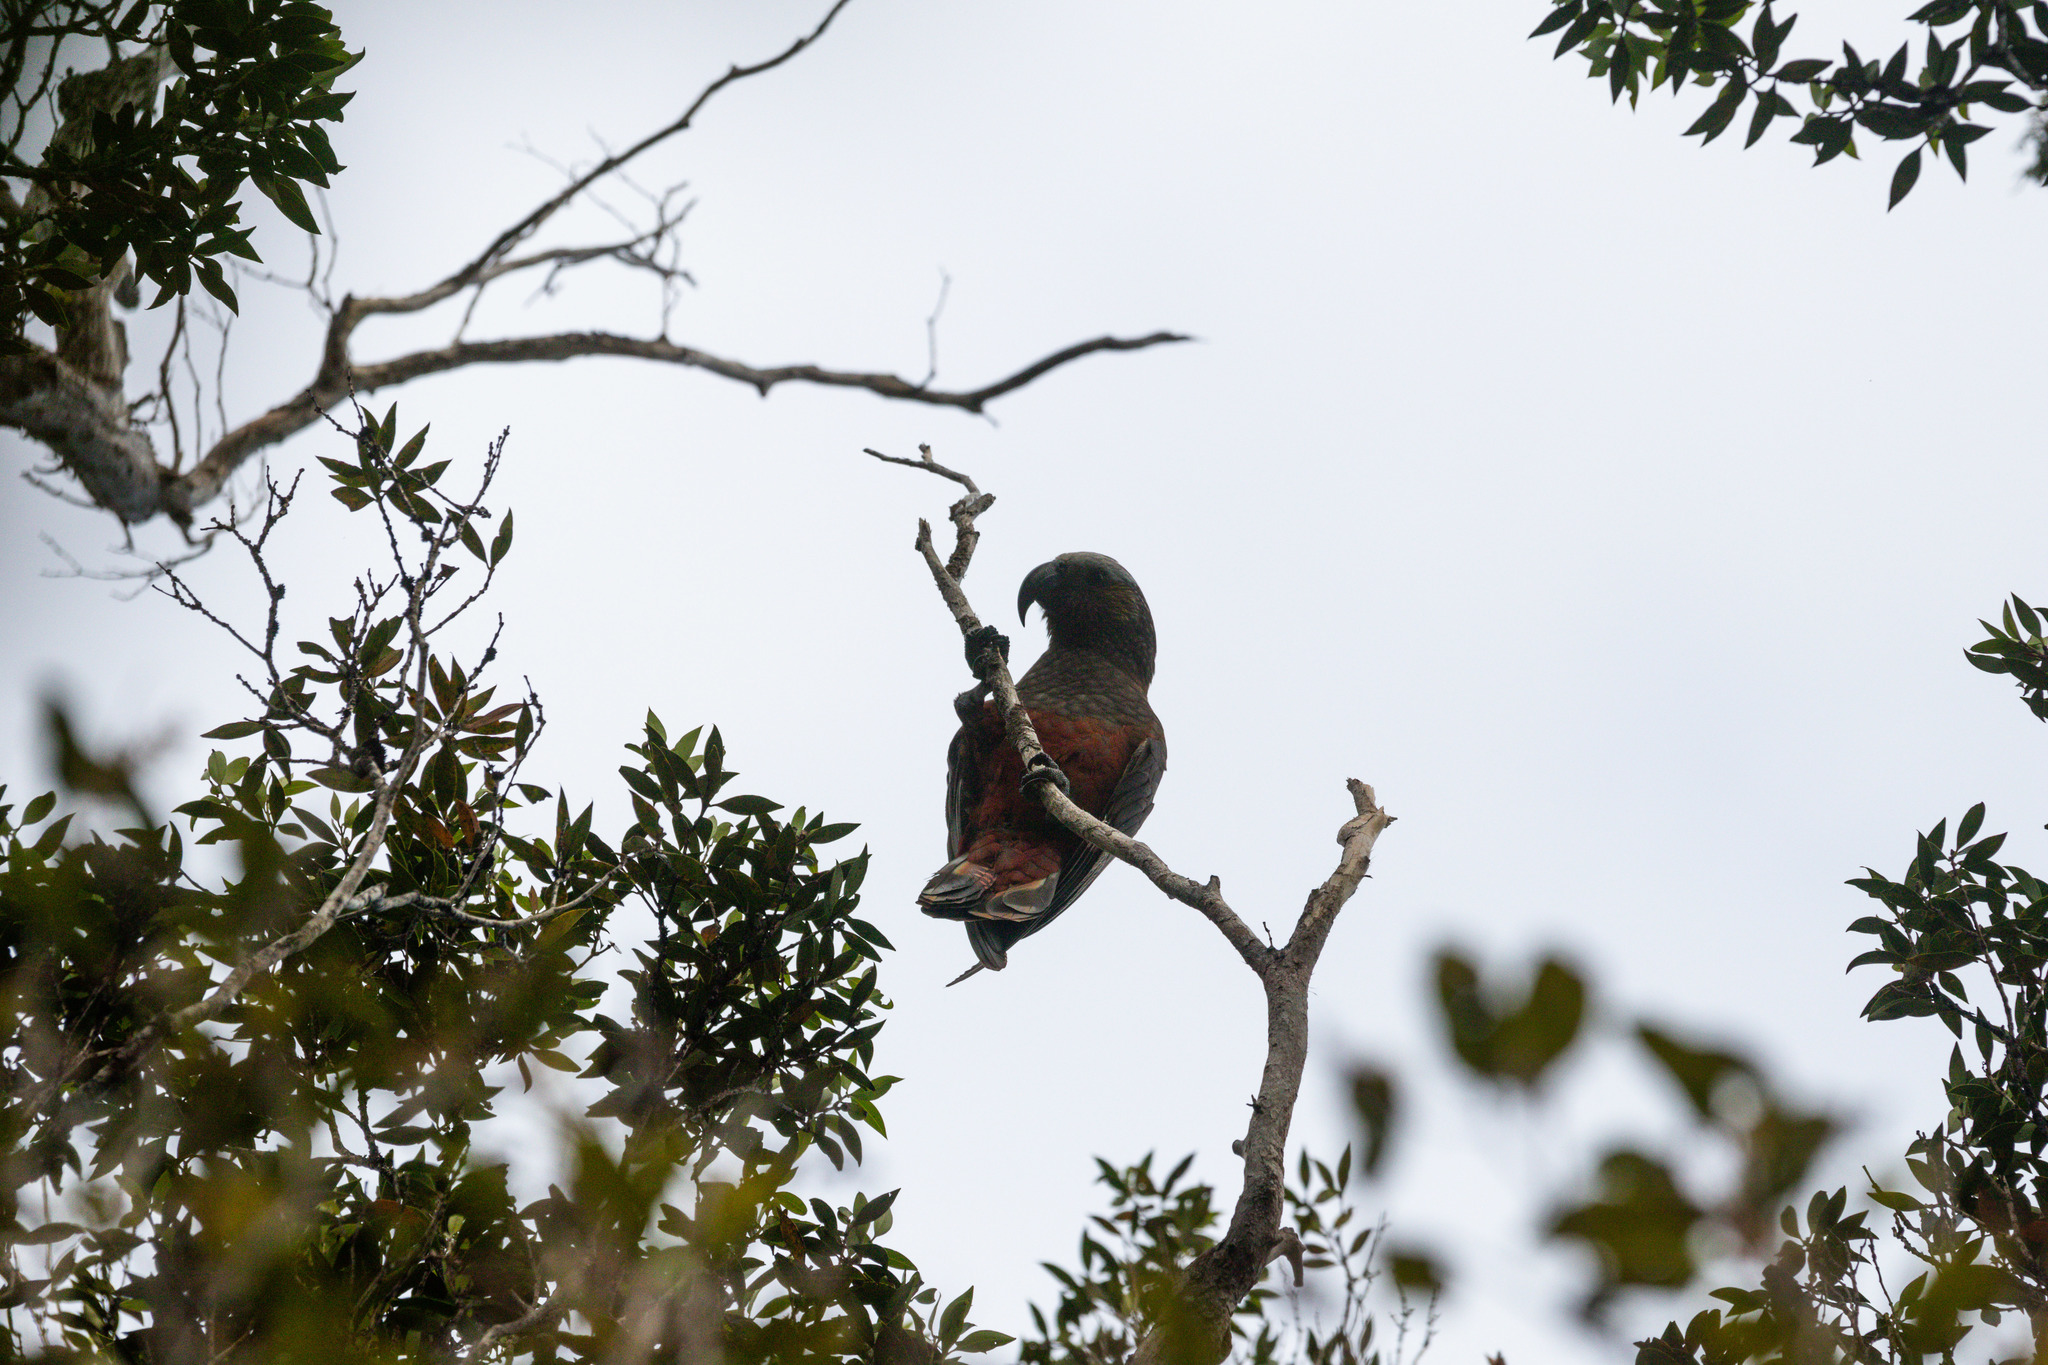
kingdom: Animalia
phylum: Chordata
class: Aves
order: Psittaciformes
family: Psittacidae
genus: Nestor
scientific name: Nestor meridionalis
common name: New zealand kaka
